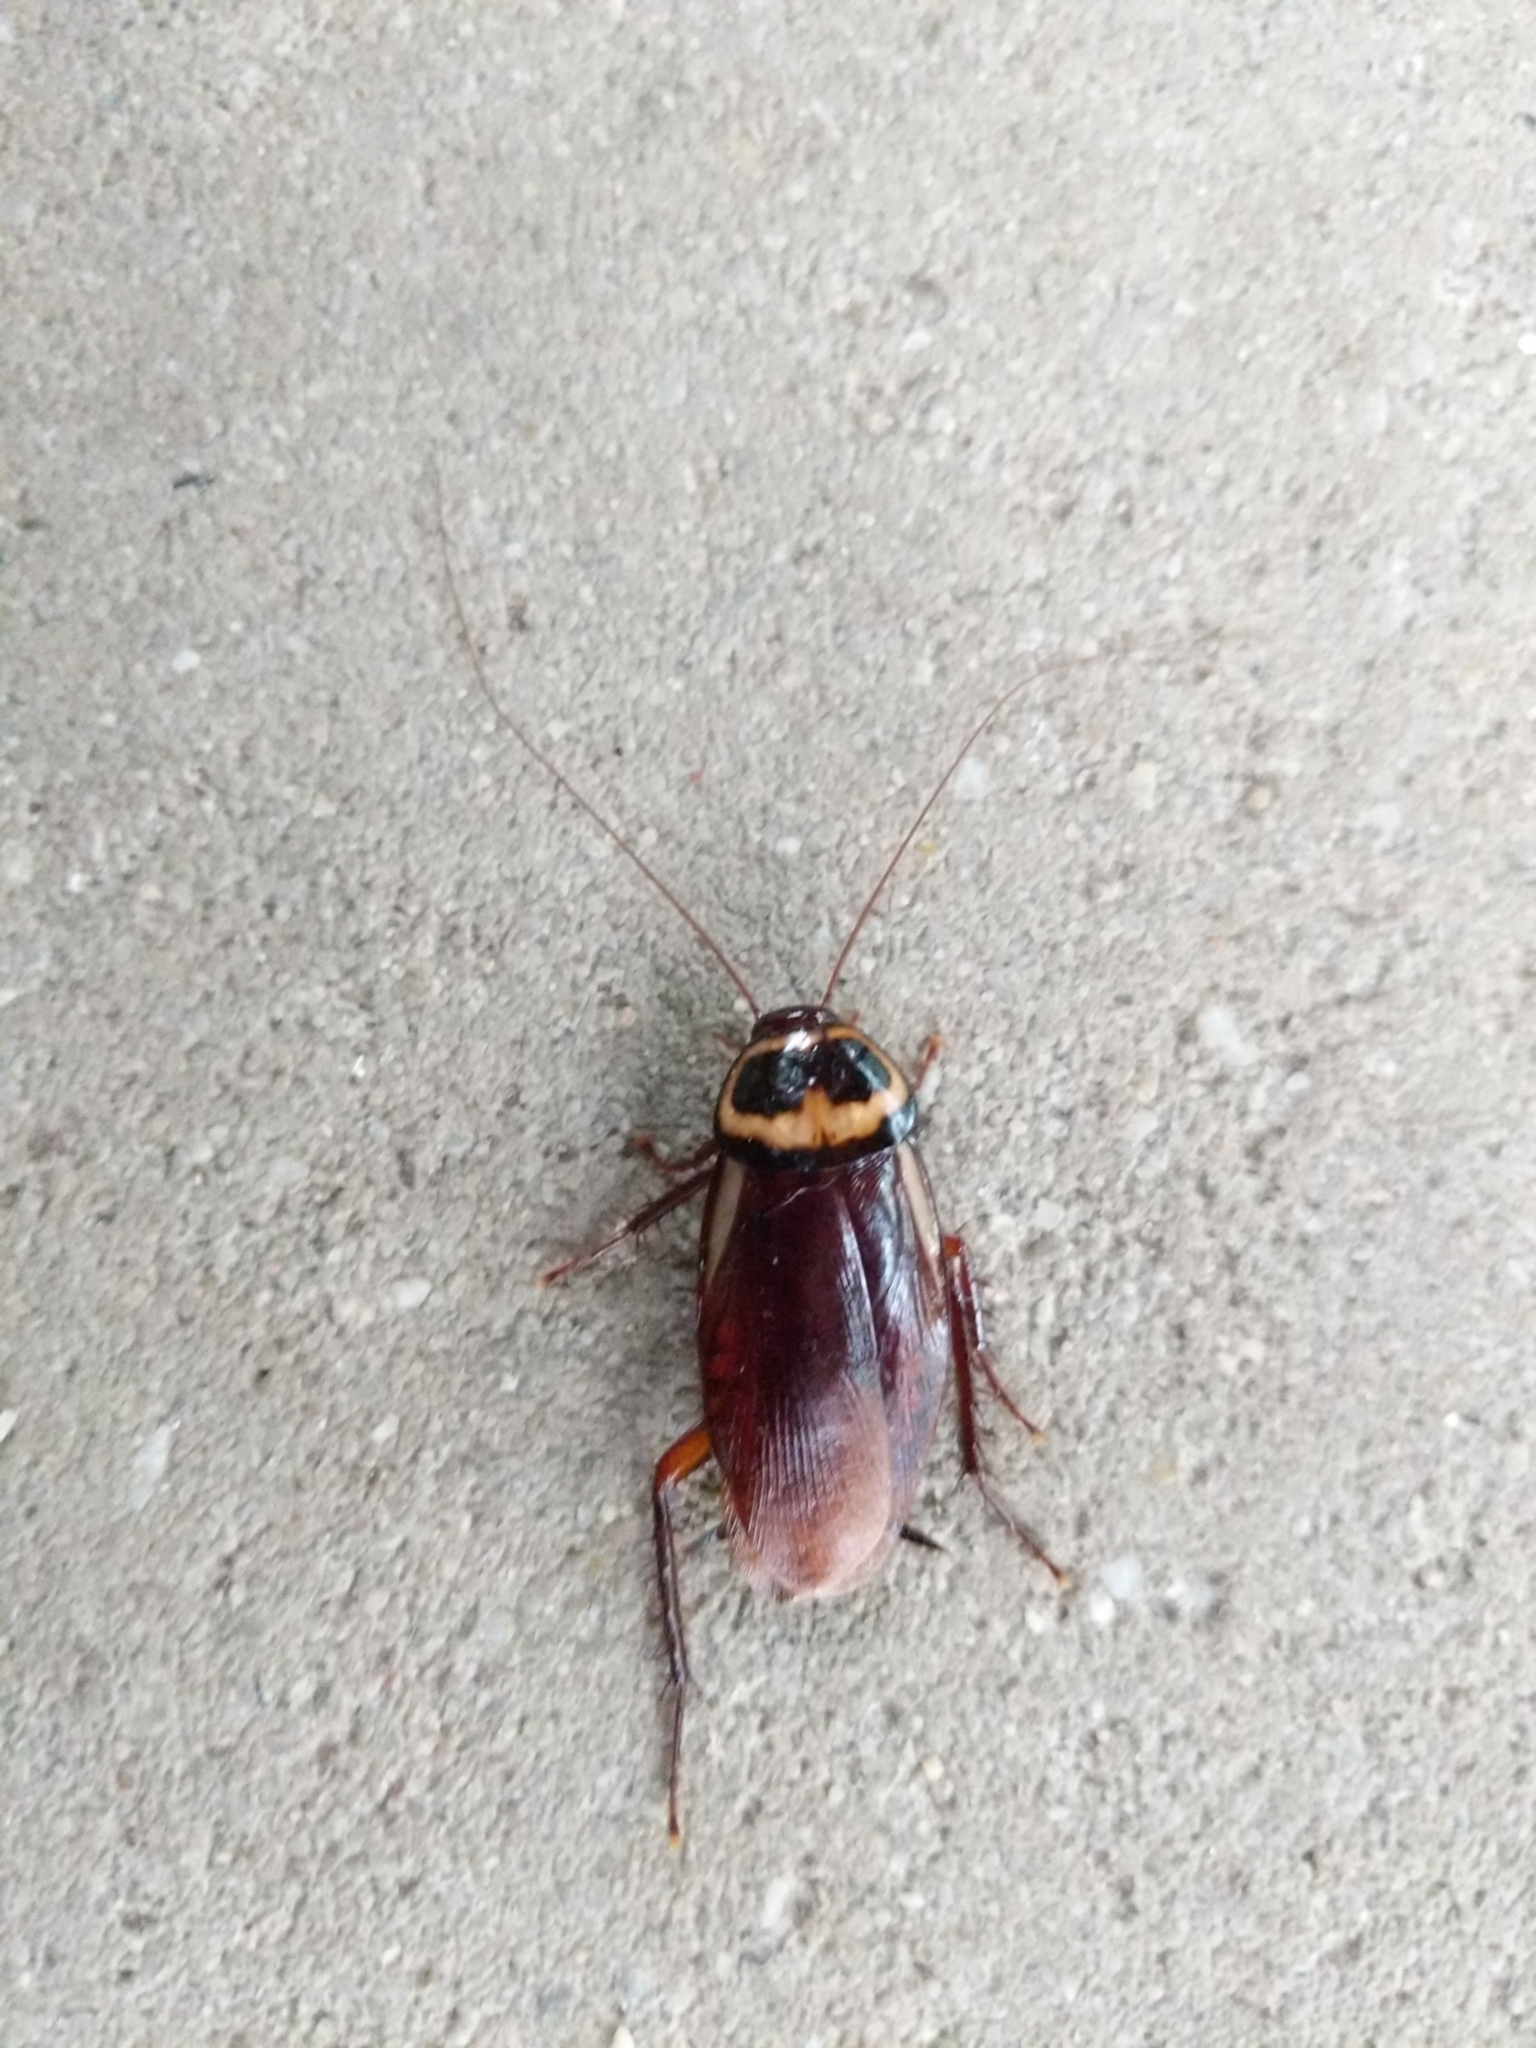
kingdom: Animalia
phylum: Arthropoda
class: Insecta
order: Blattodea
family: Blattidae
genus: Periplaneta
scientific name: Periplaneta australasiae
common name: Australian cockroach
